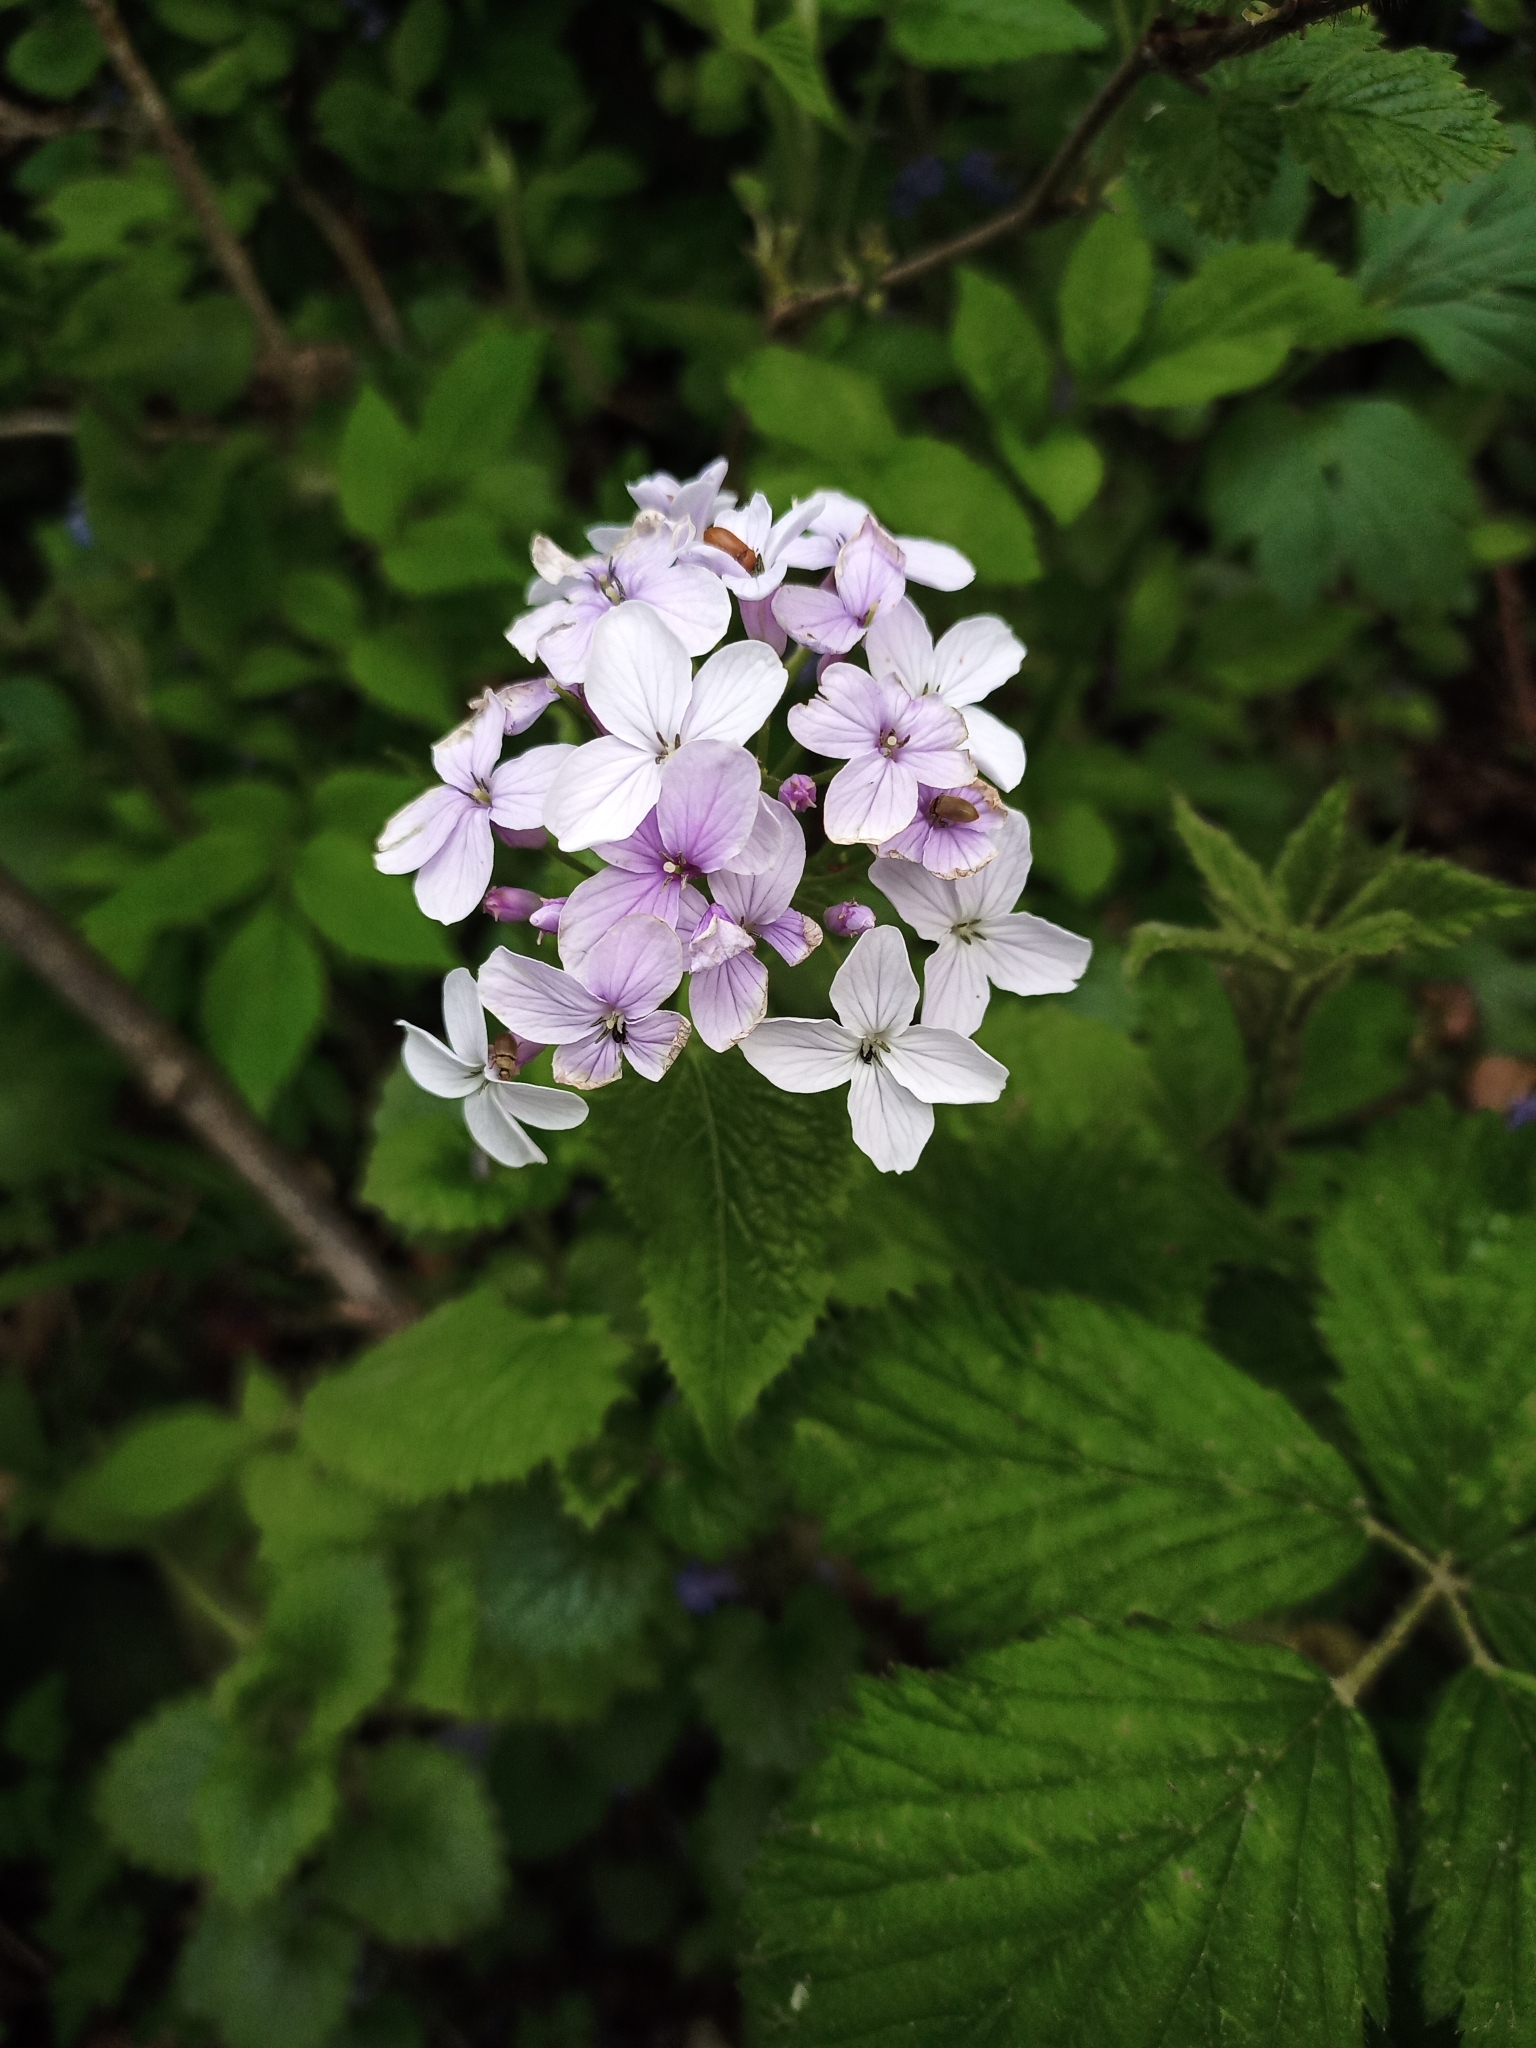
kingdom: Plantae
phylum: Tracheophyta
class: Magnoliopsida
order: Brassicales
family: Brassicaceae
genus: Lunaria
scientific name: Lunaria rediviva
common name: Perennial honesty
